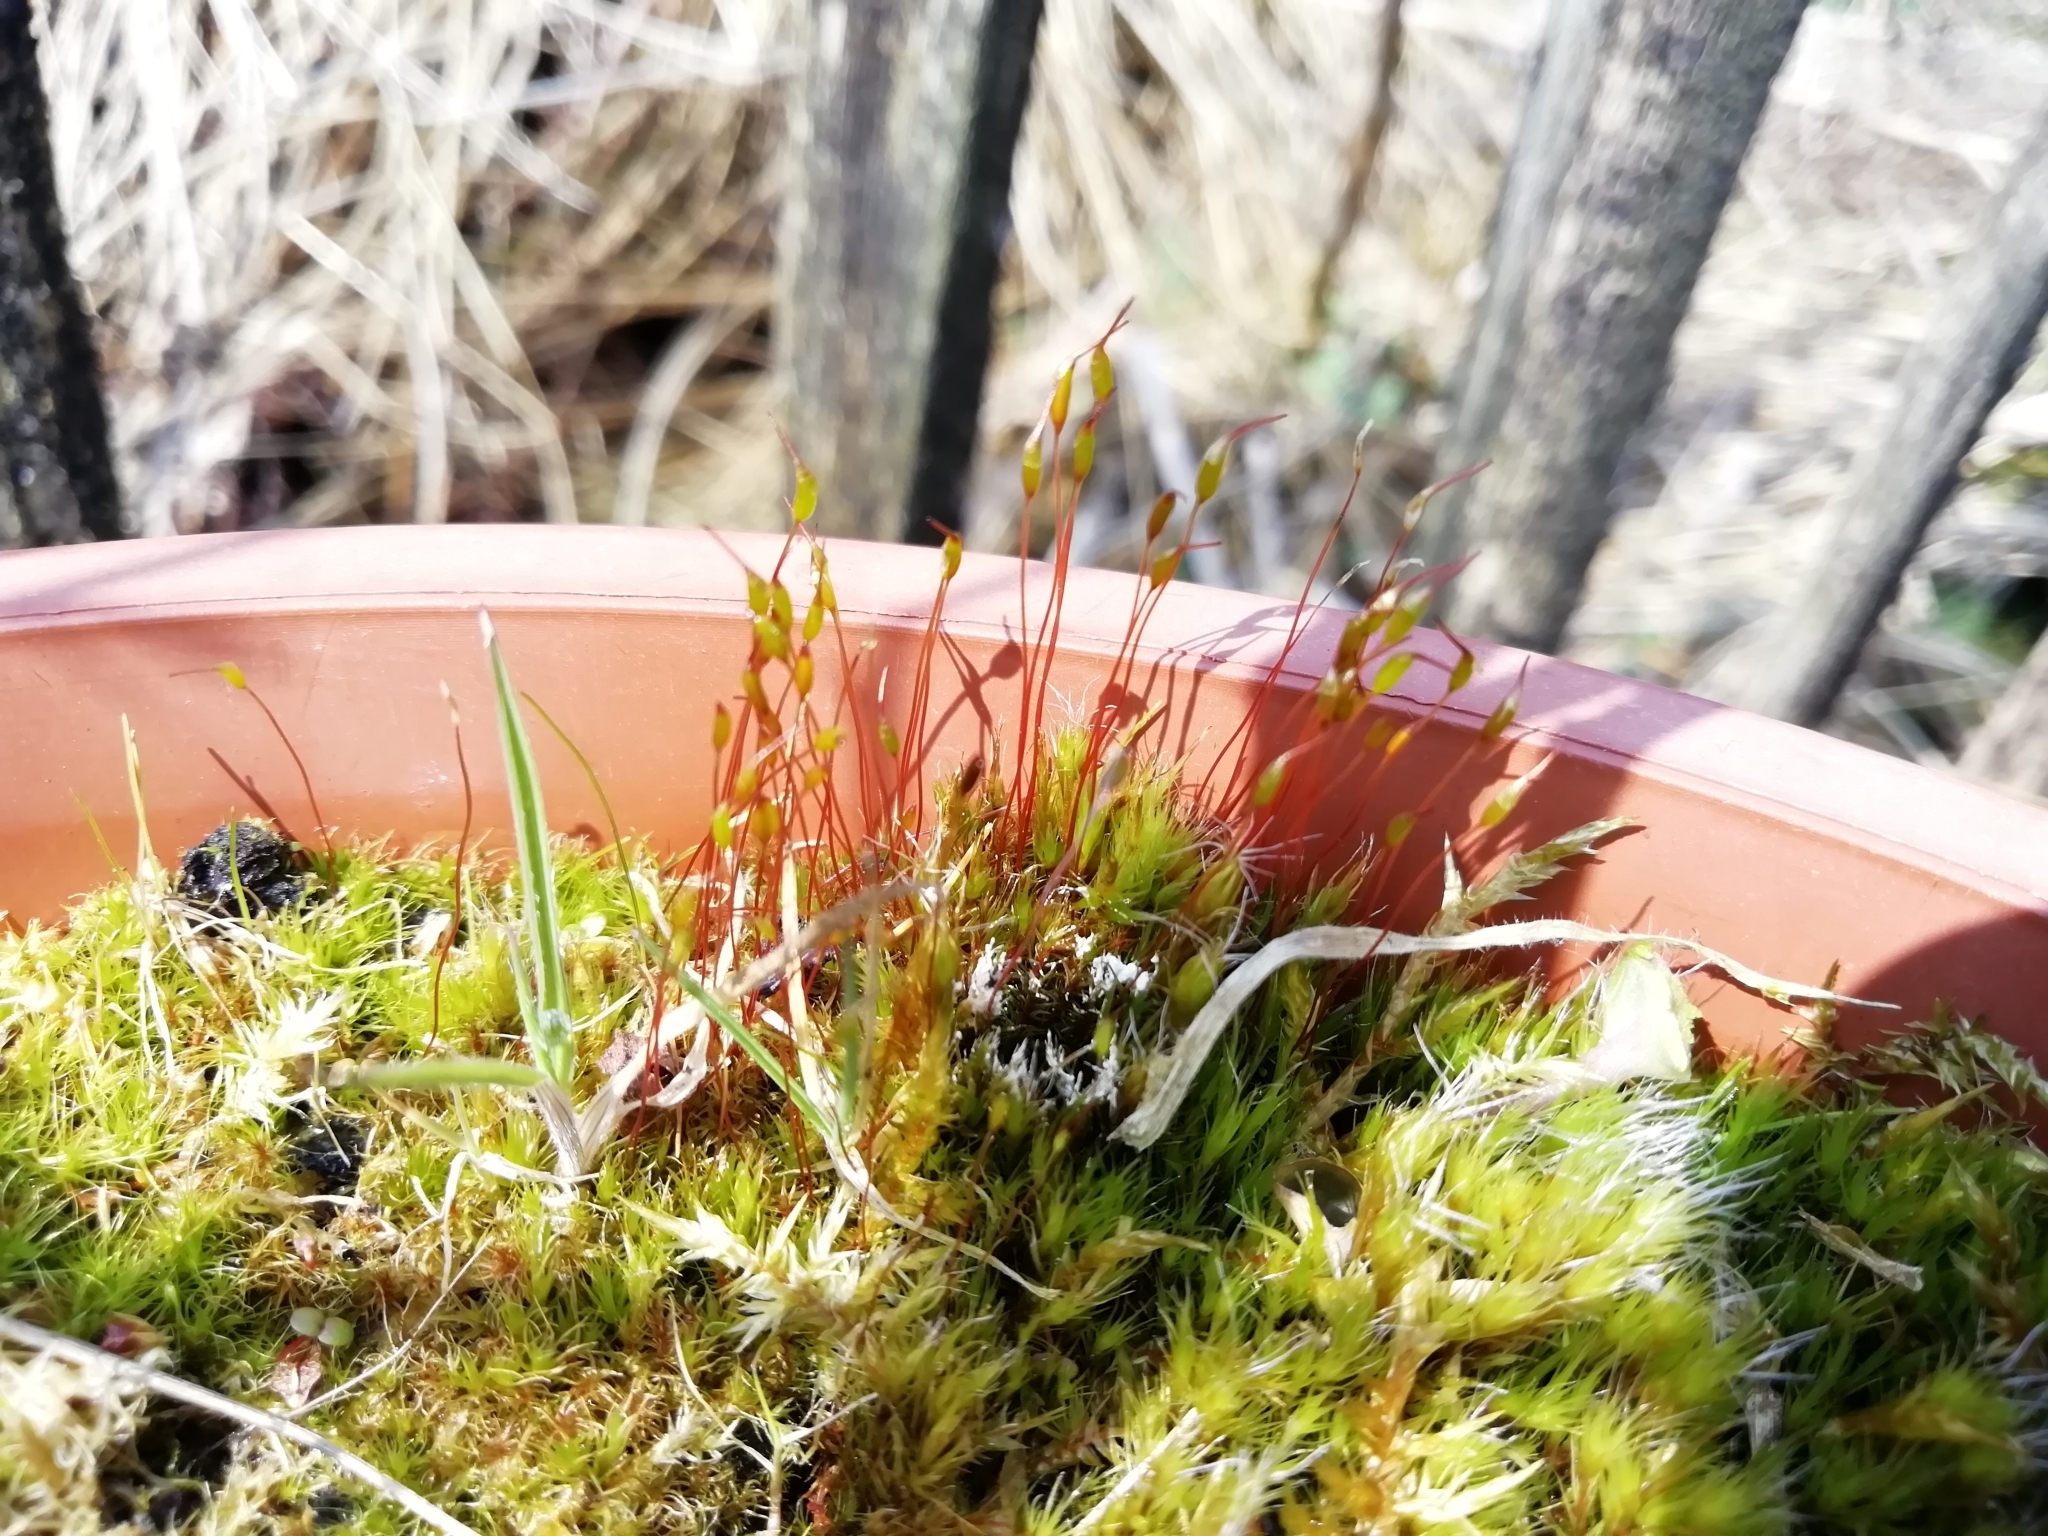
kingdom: Plantae
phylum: Bryophyta
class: Bryopsida
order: Dicranales
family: Ditrichaceae
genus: Ceratodon
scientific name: Ceratodon purpureus
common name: Redshank
